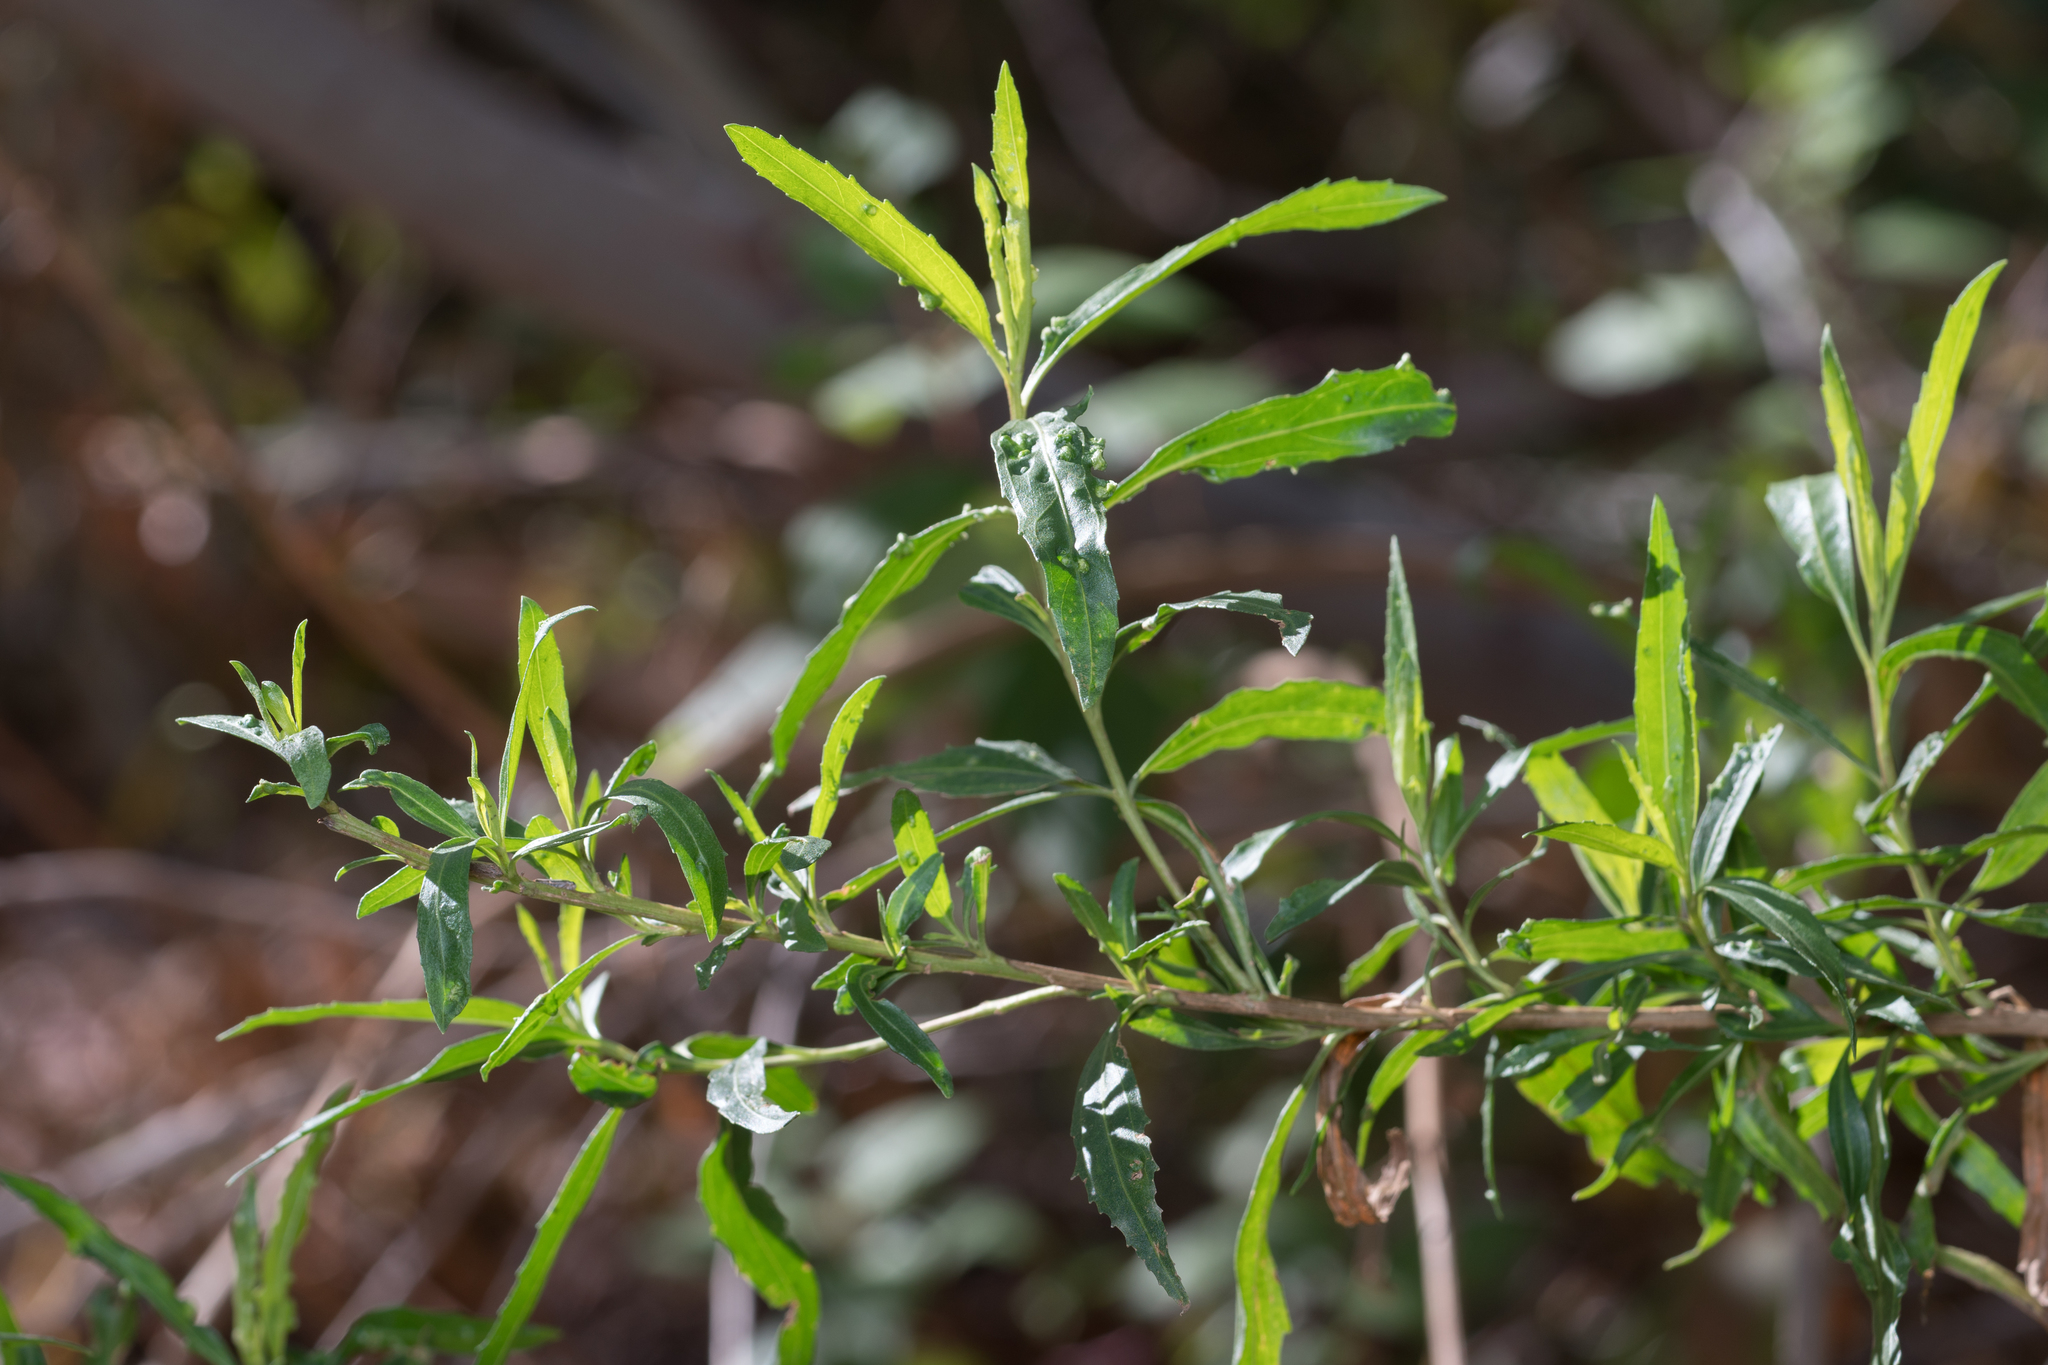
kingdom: Plantae
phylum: Tracheophyta
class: Magnoliopsida
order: Asterales
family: Asteraceae
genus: Baccharis
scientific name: Baccharis salicifolia
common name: Sticky baccharis
